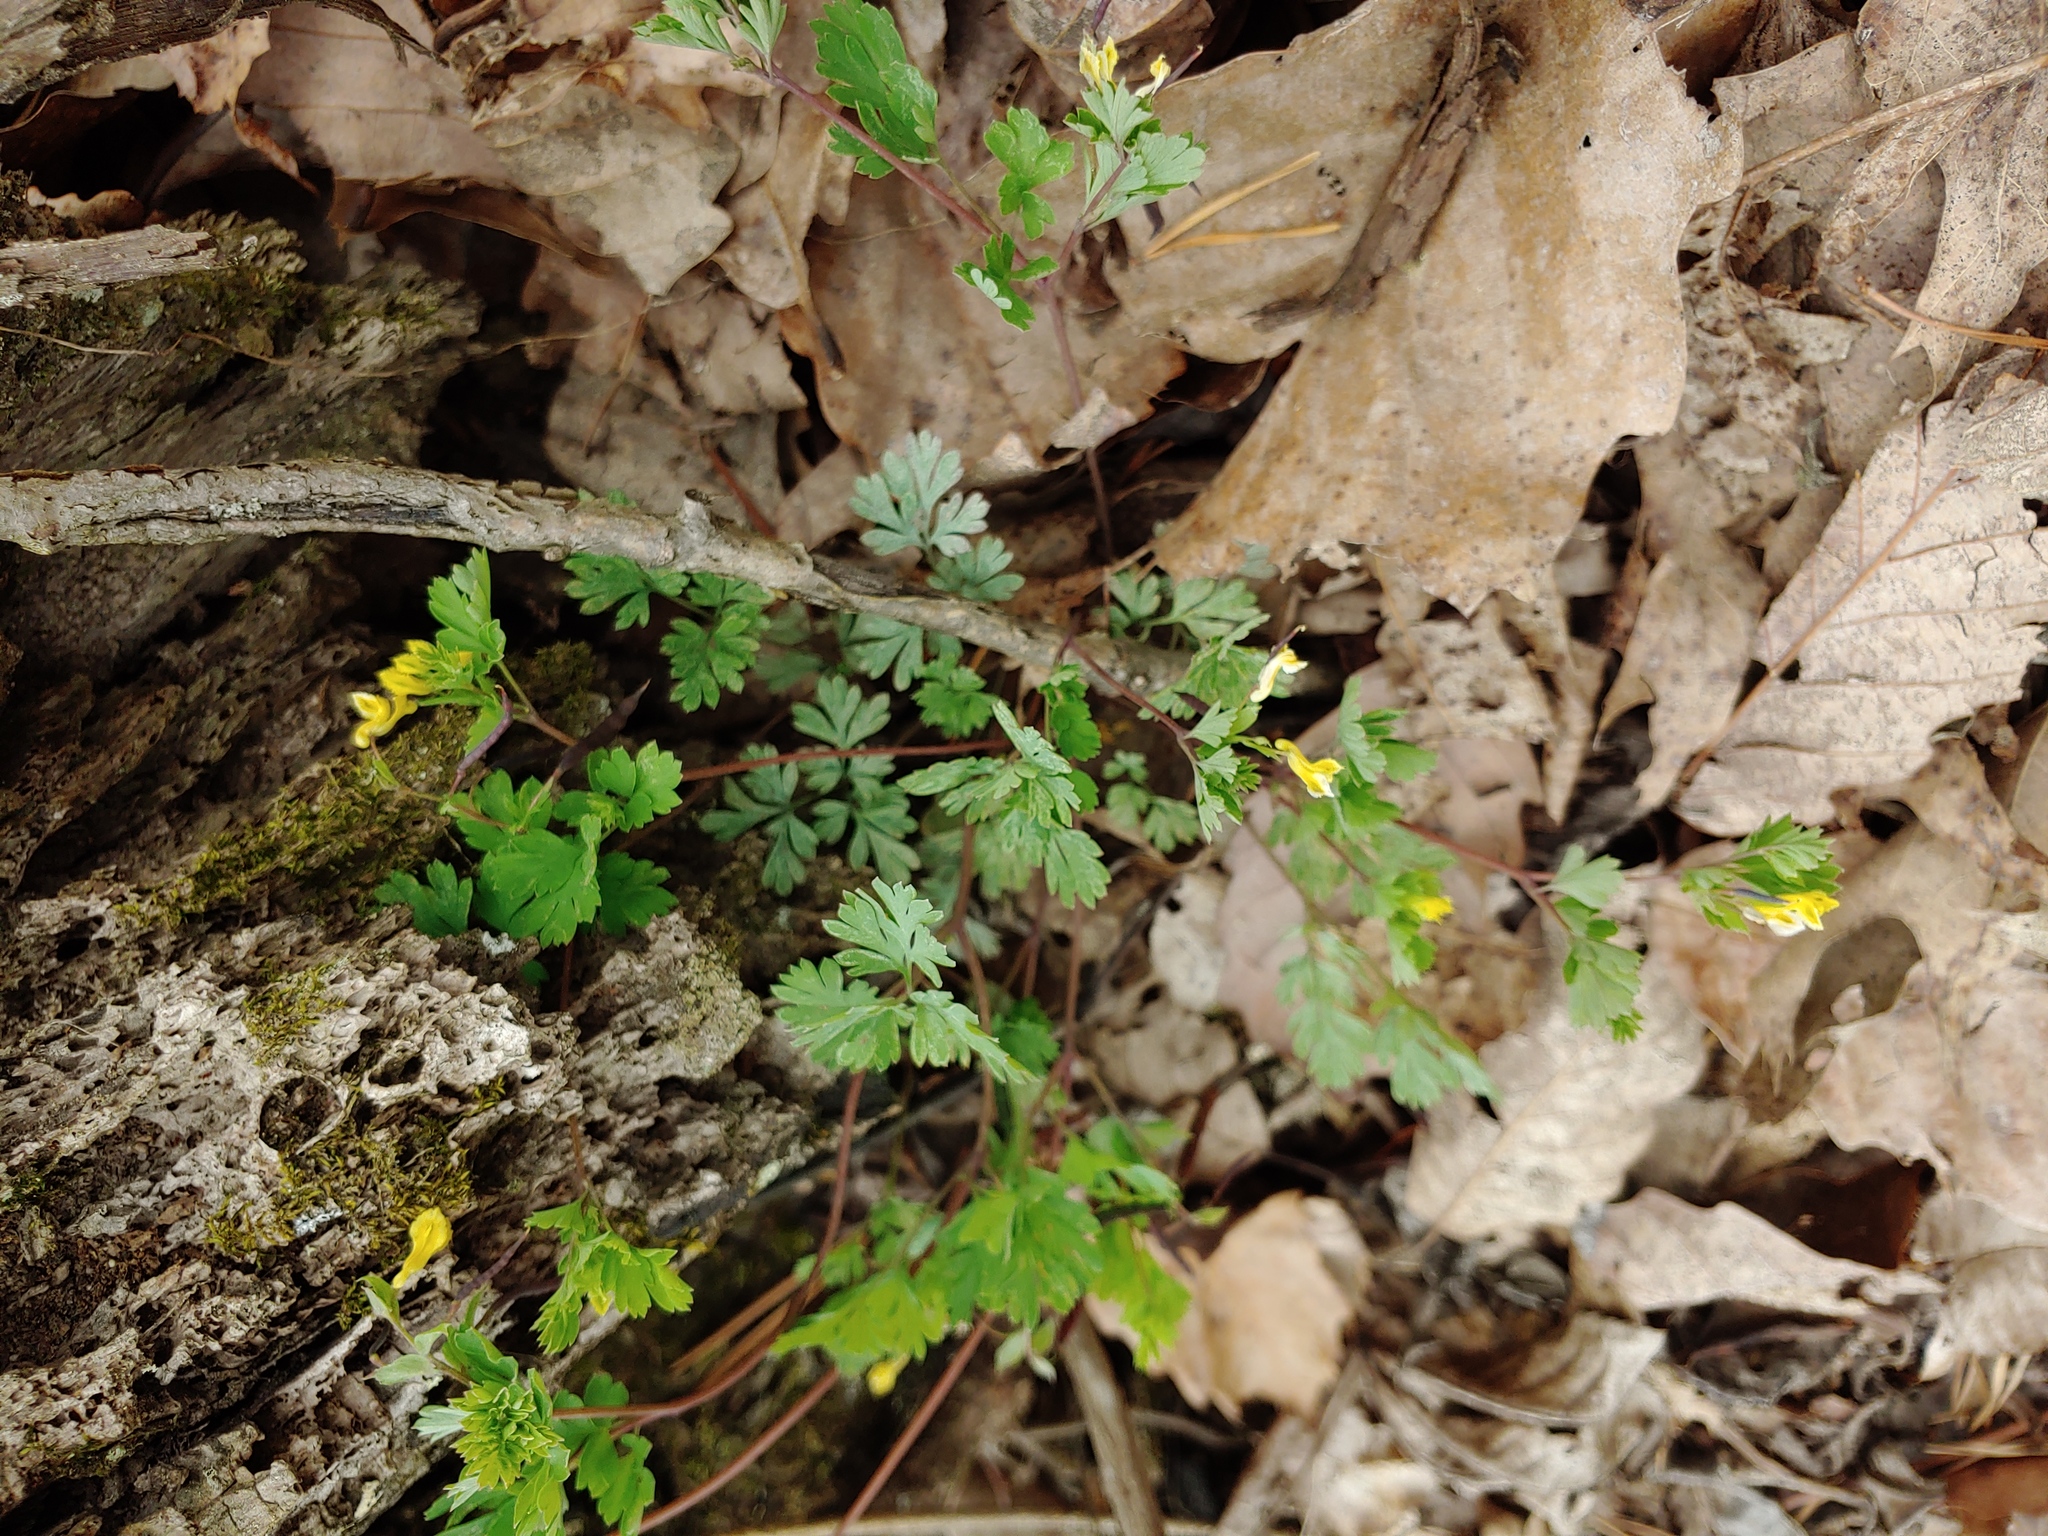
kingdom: Plantae
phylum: Tracheophyta
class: Magnoliopsida
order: Ranunculales
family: Papaveraceae
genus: Corydalis
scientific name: Corydalis flavula
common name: Yellow corydalis
